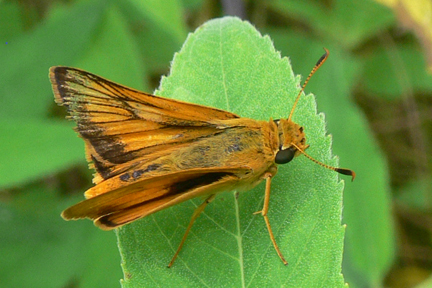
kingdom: Animalia
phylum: Arthropoda
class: Insecta
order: Lepidoptera
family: Hesperiidae
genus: Atrytone
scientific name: Atrytone delaware
